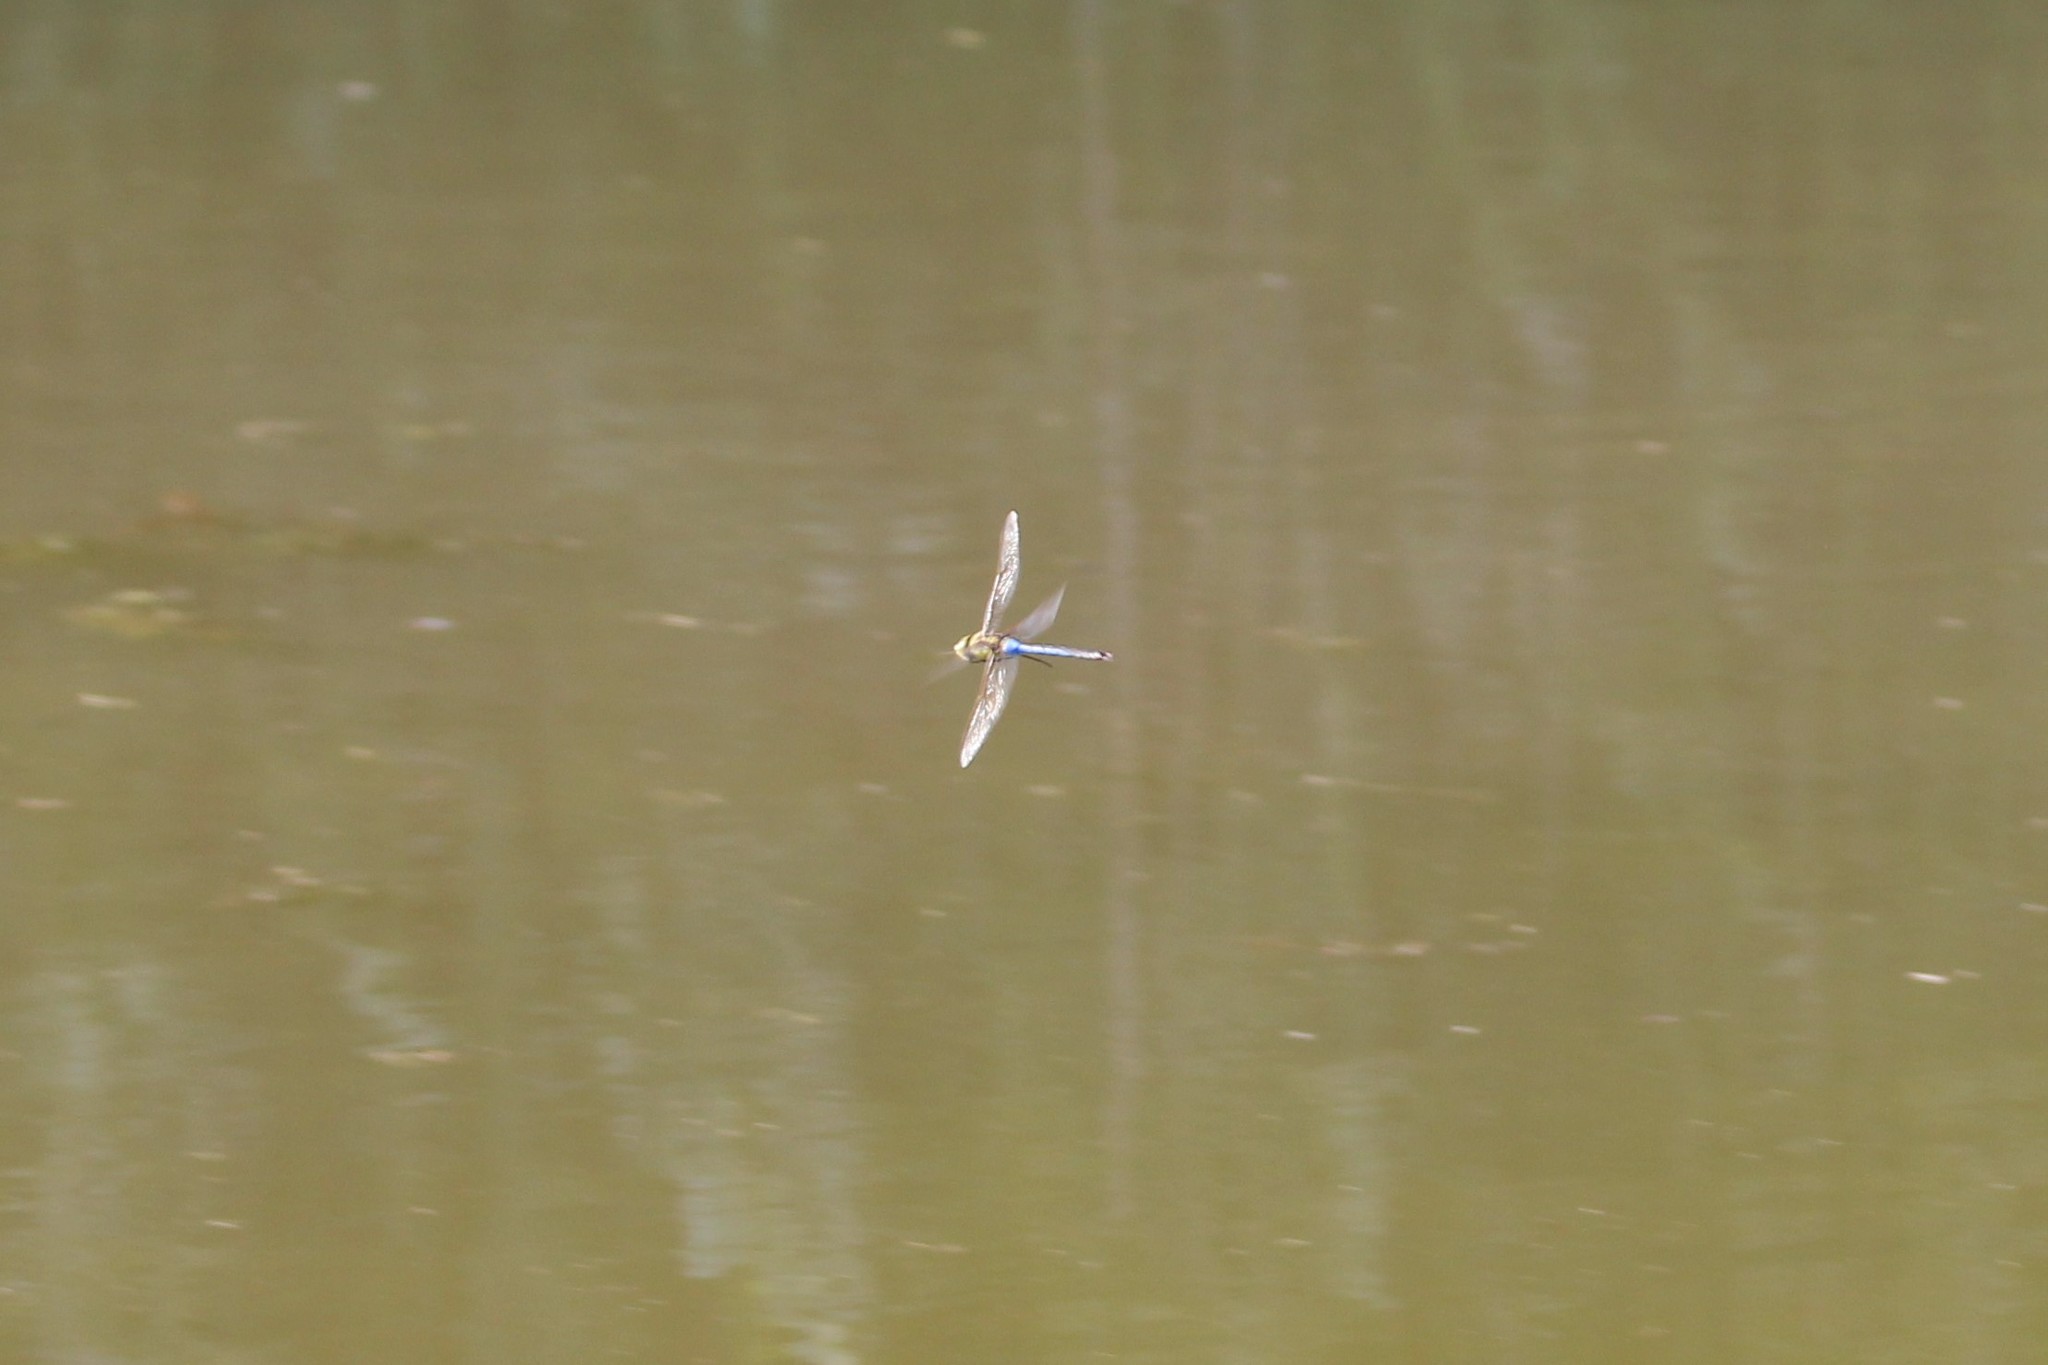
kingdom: Animalia
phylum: Arthropoda
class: Insecta
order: Odonata
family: Aeshnidae
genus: Anax
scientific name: Anax junius
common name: Common green darner
